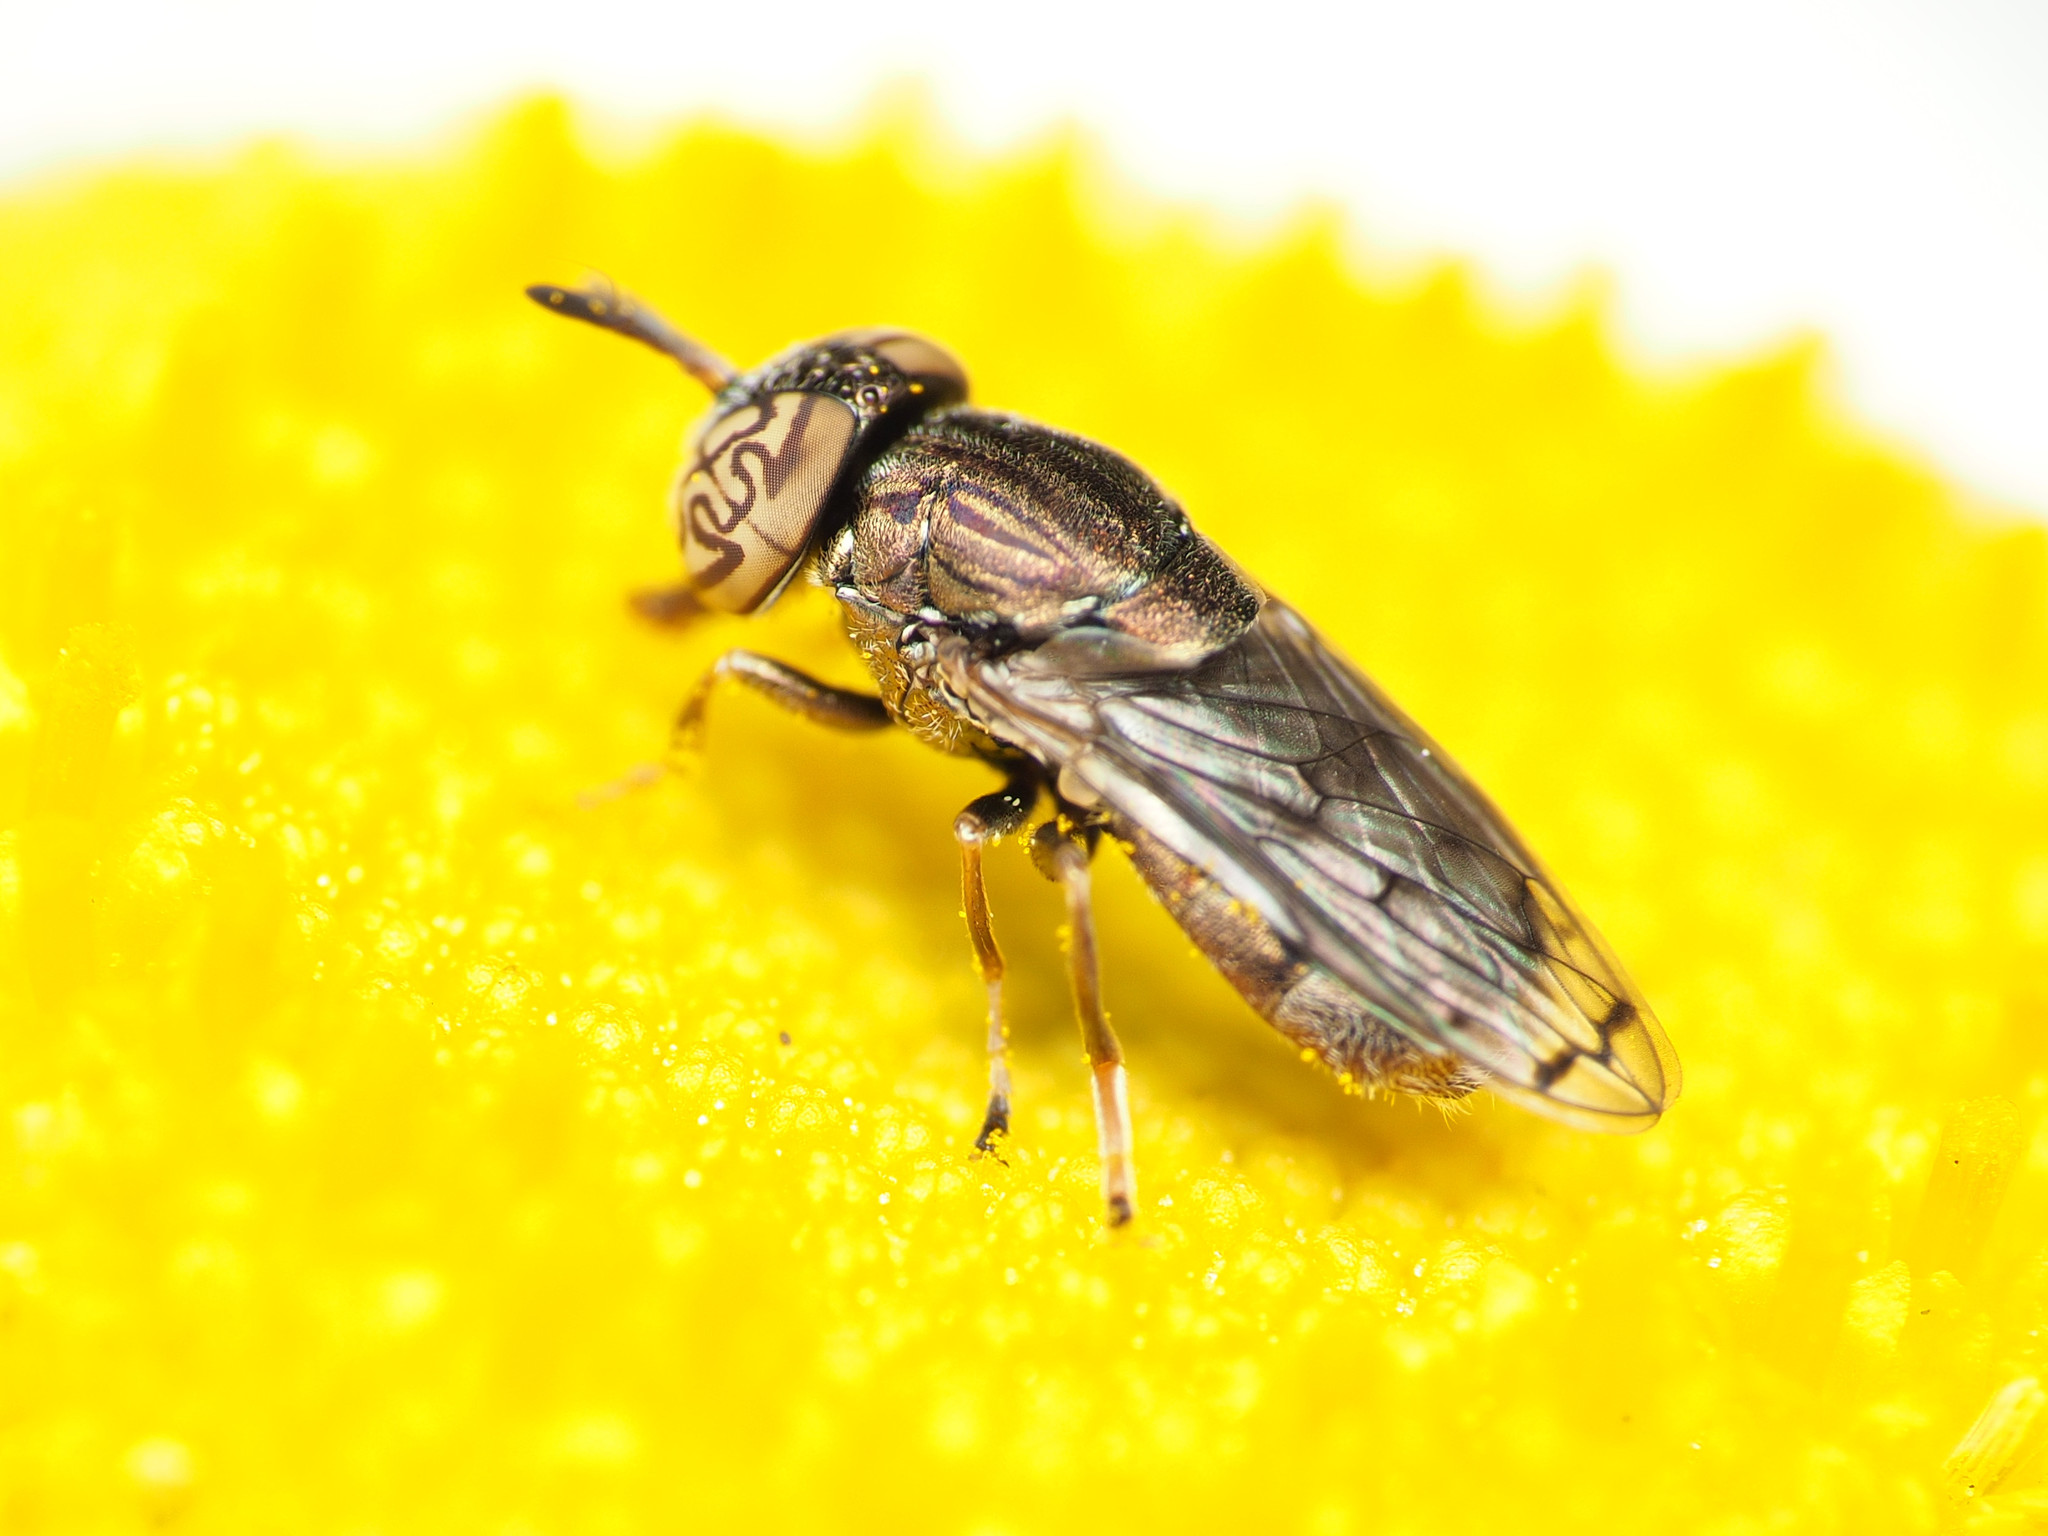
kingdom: Animalia
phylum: Arthropoda
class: Insecta
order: Diptera
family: Syrphidae
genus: Orthonevra
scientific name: Orthonevra nitida
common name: Wavy mucksucker
